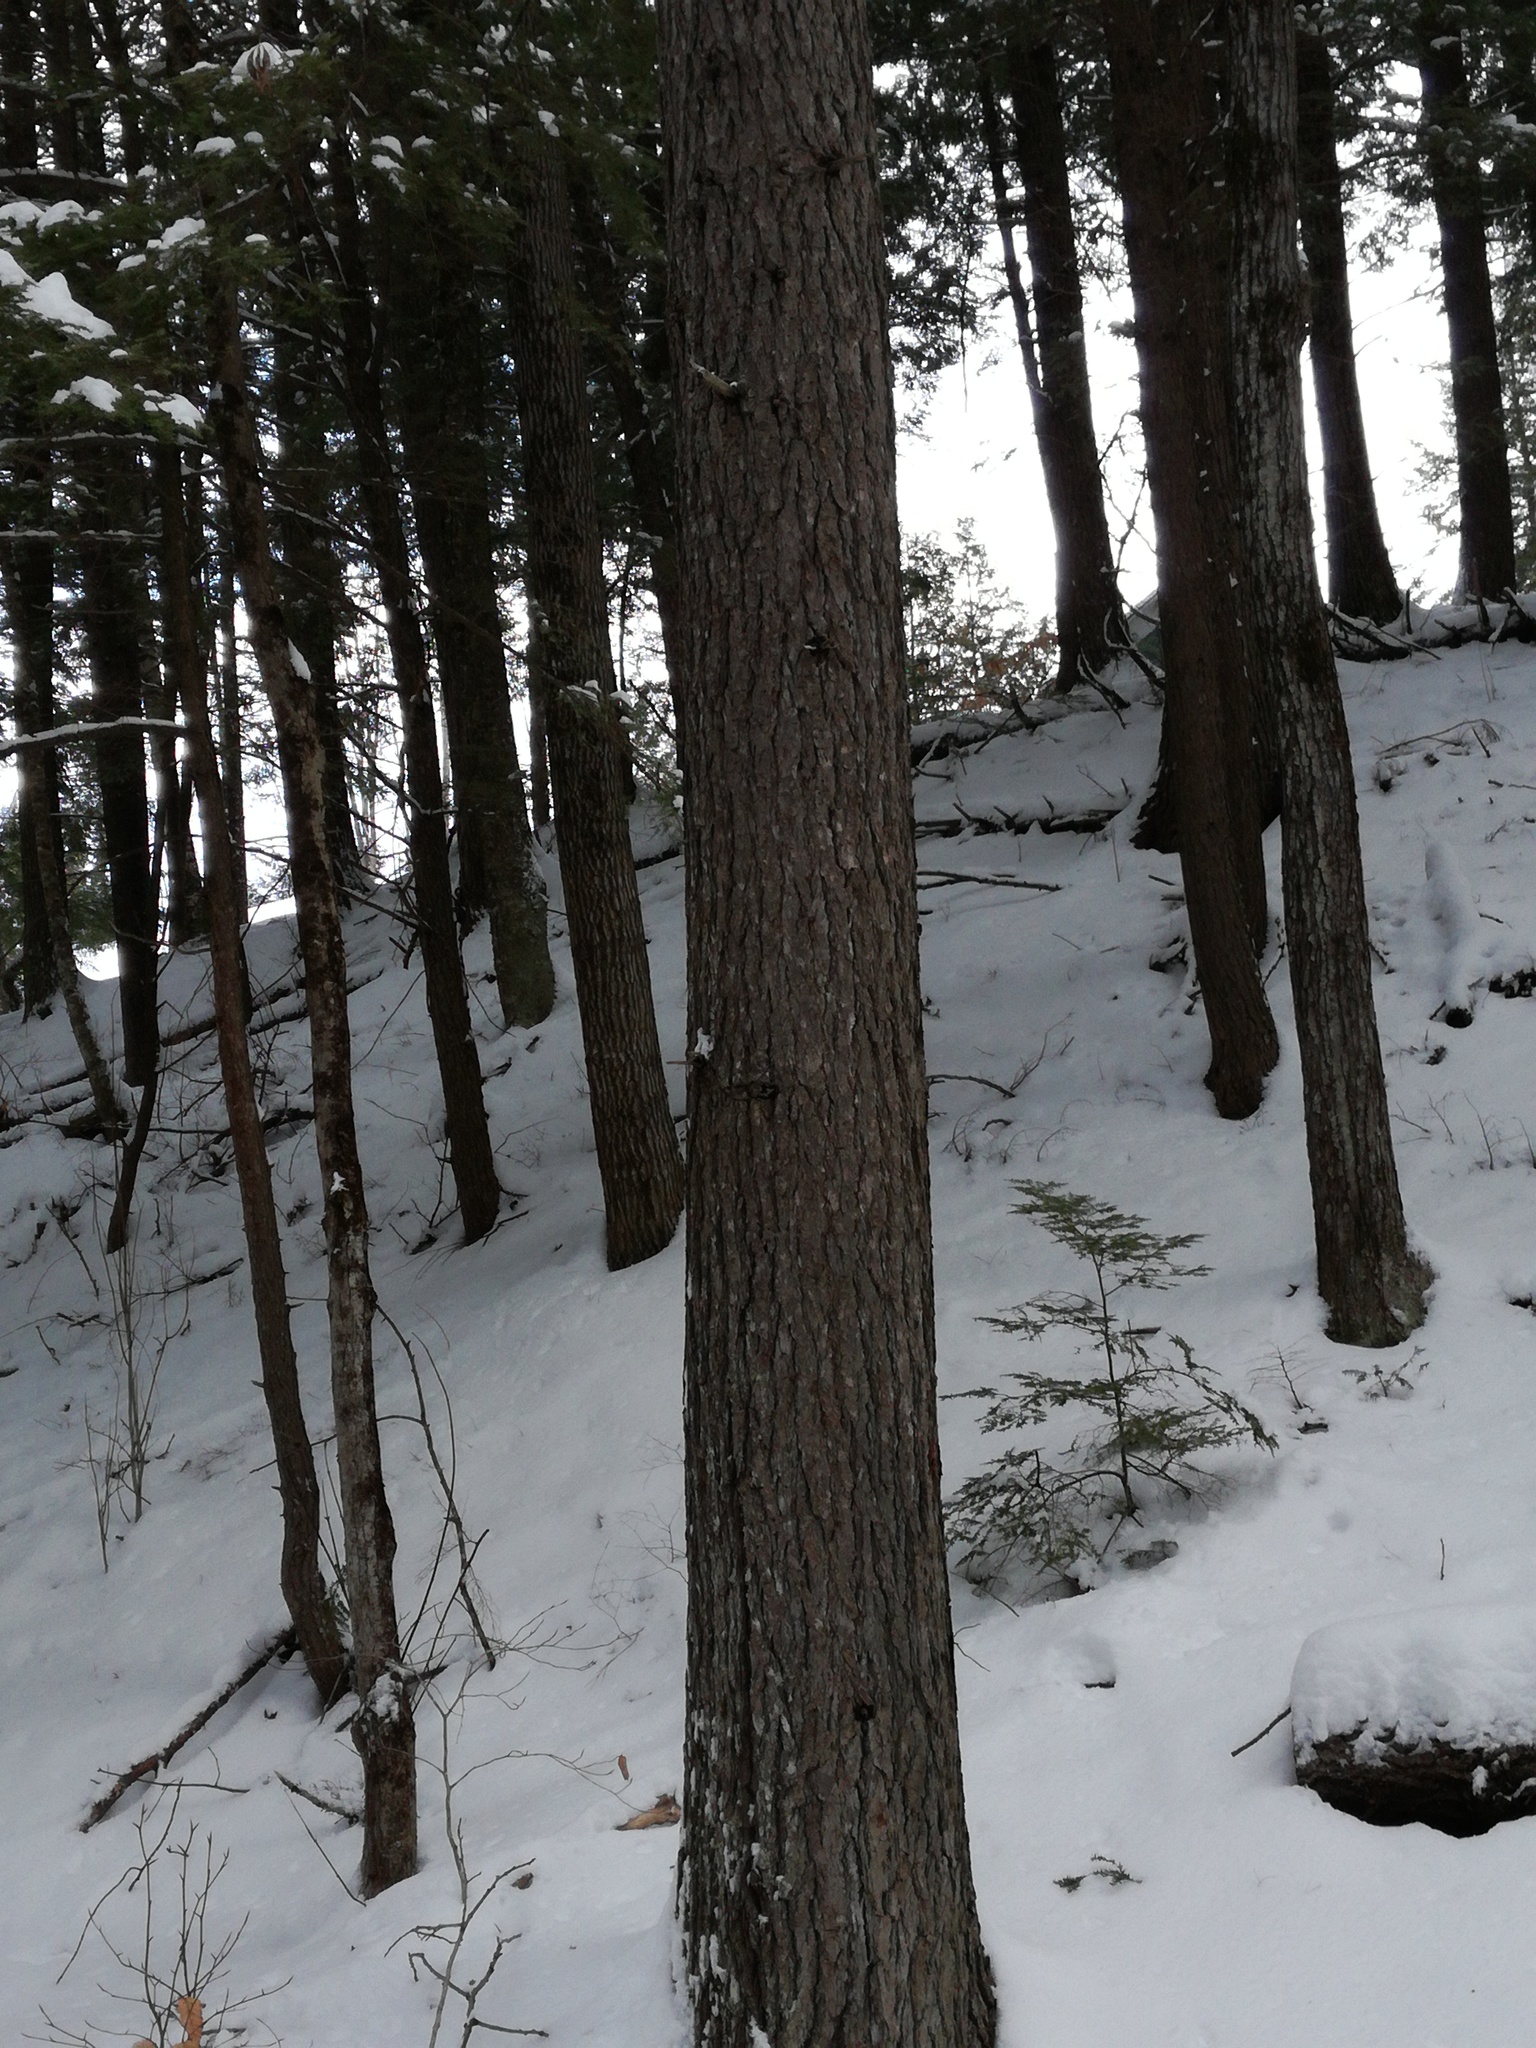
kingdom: Plantae
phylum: Tracheophyta
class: Pinopsida
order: Pinales
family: Pinaceae
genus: Tsuga
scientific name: Tsuga canadensis
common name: Eastern hemlock
